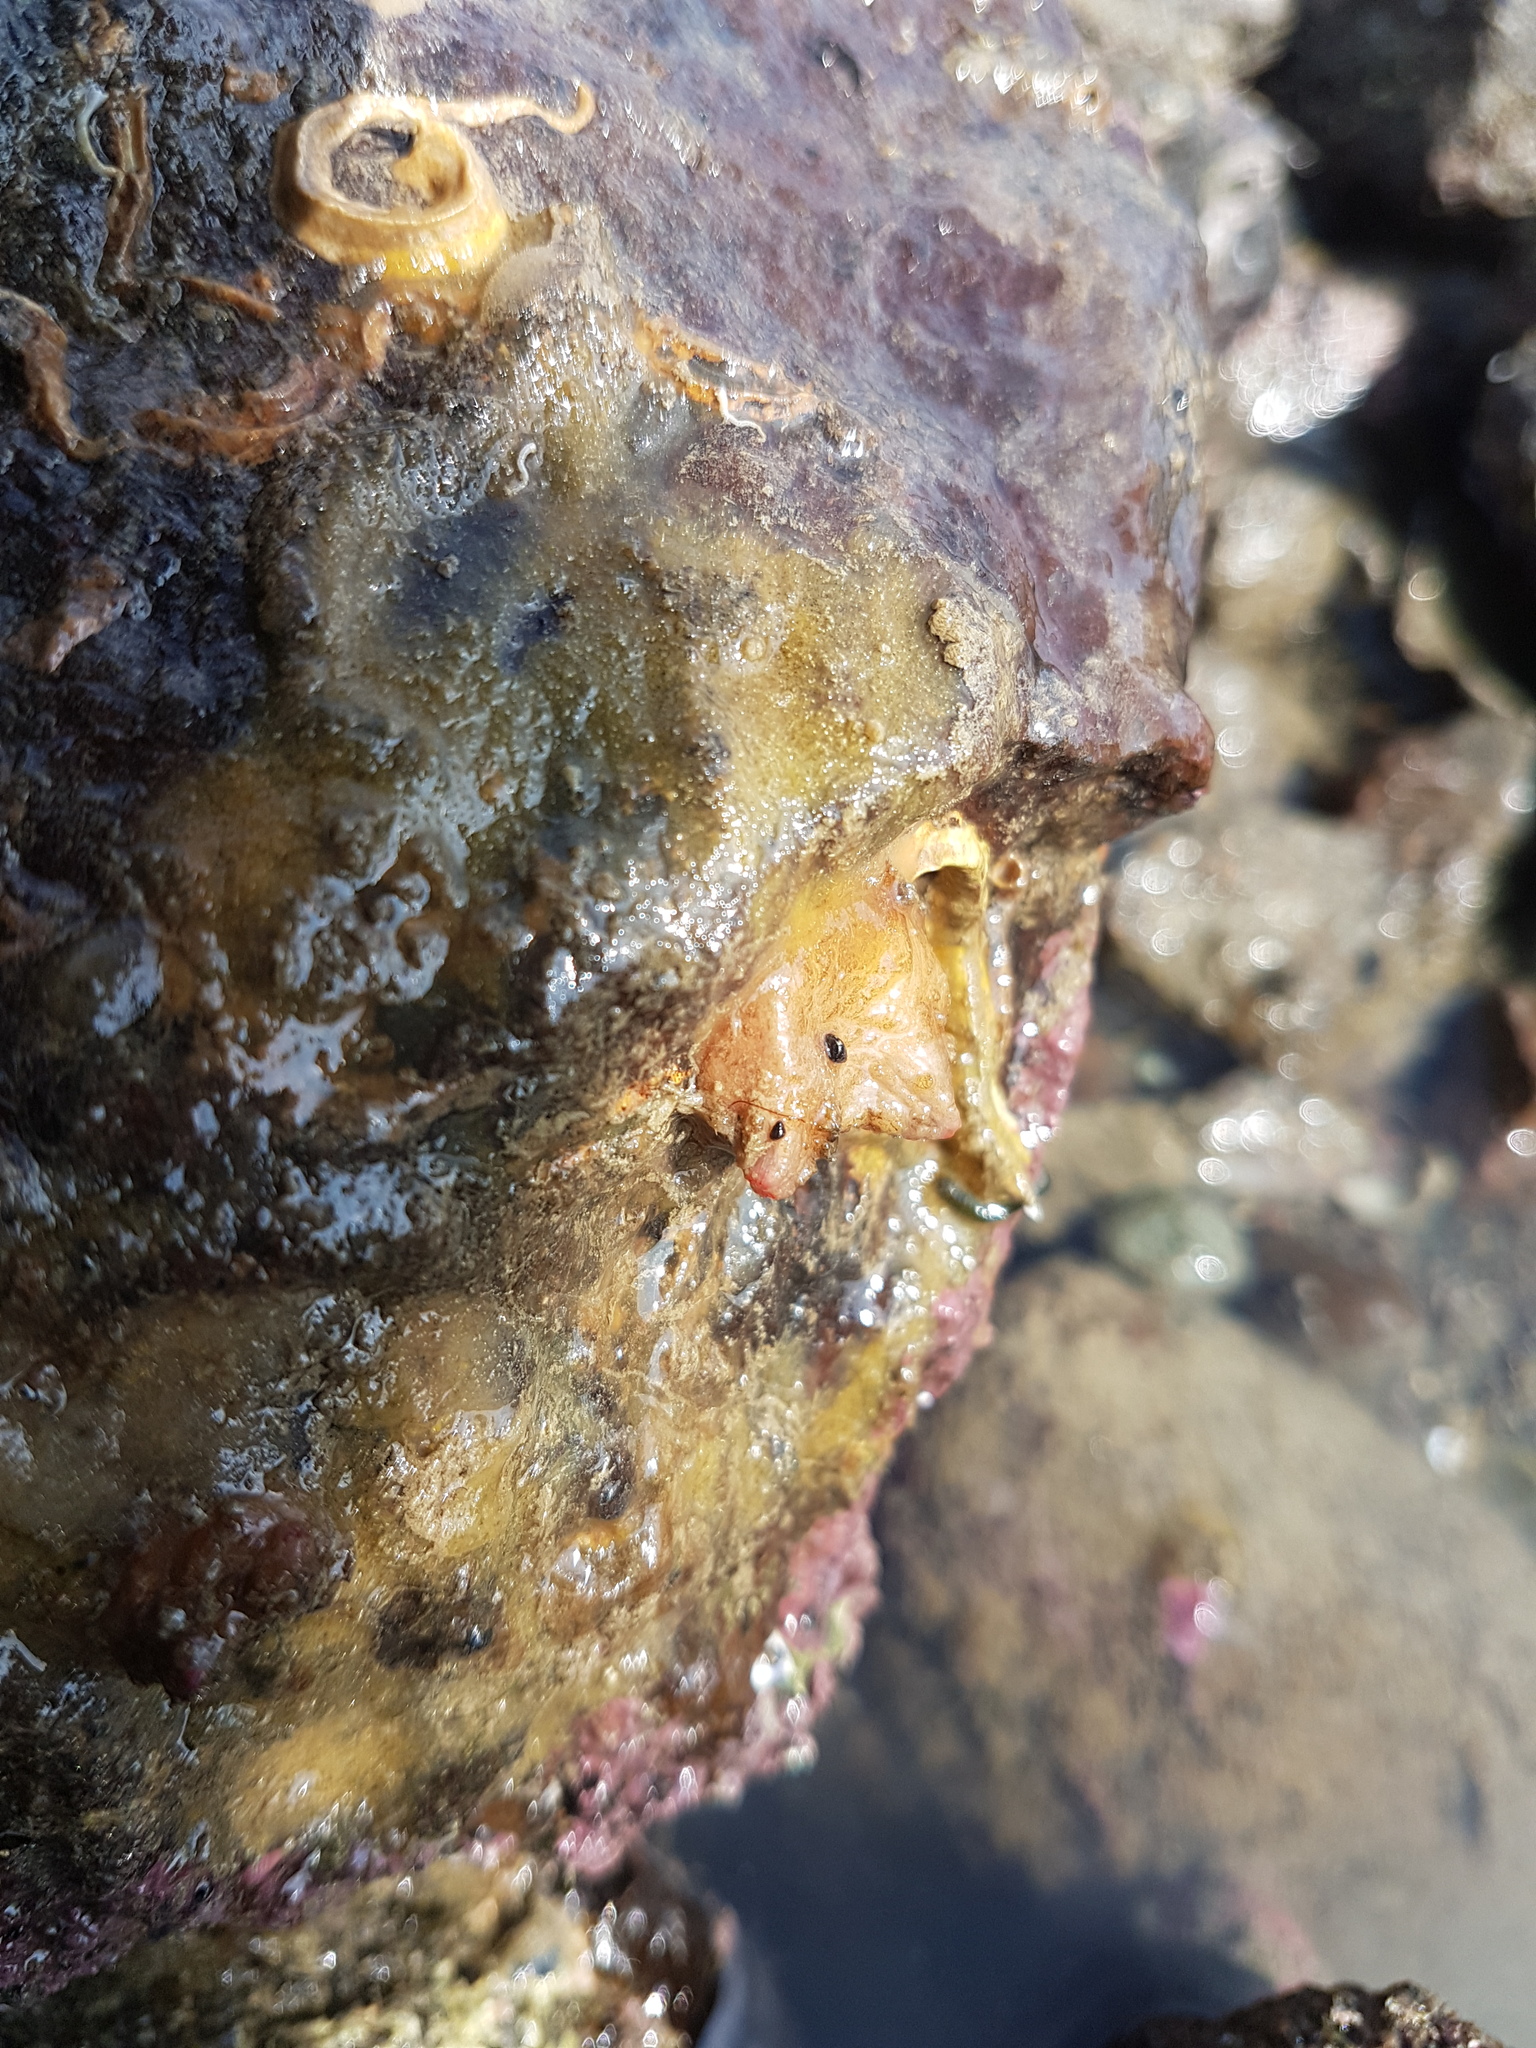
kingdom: Animalia
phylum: Chordata
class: Ascidiacea
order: Stolidobranchia
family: Styelidae
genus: Asterocarpa
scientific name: Asterocarpa humilis
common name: Compass sea squirt
